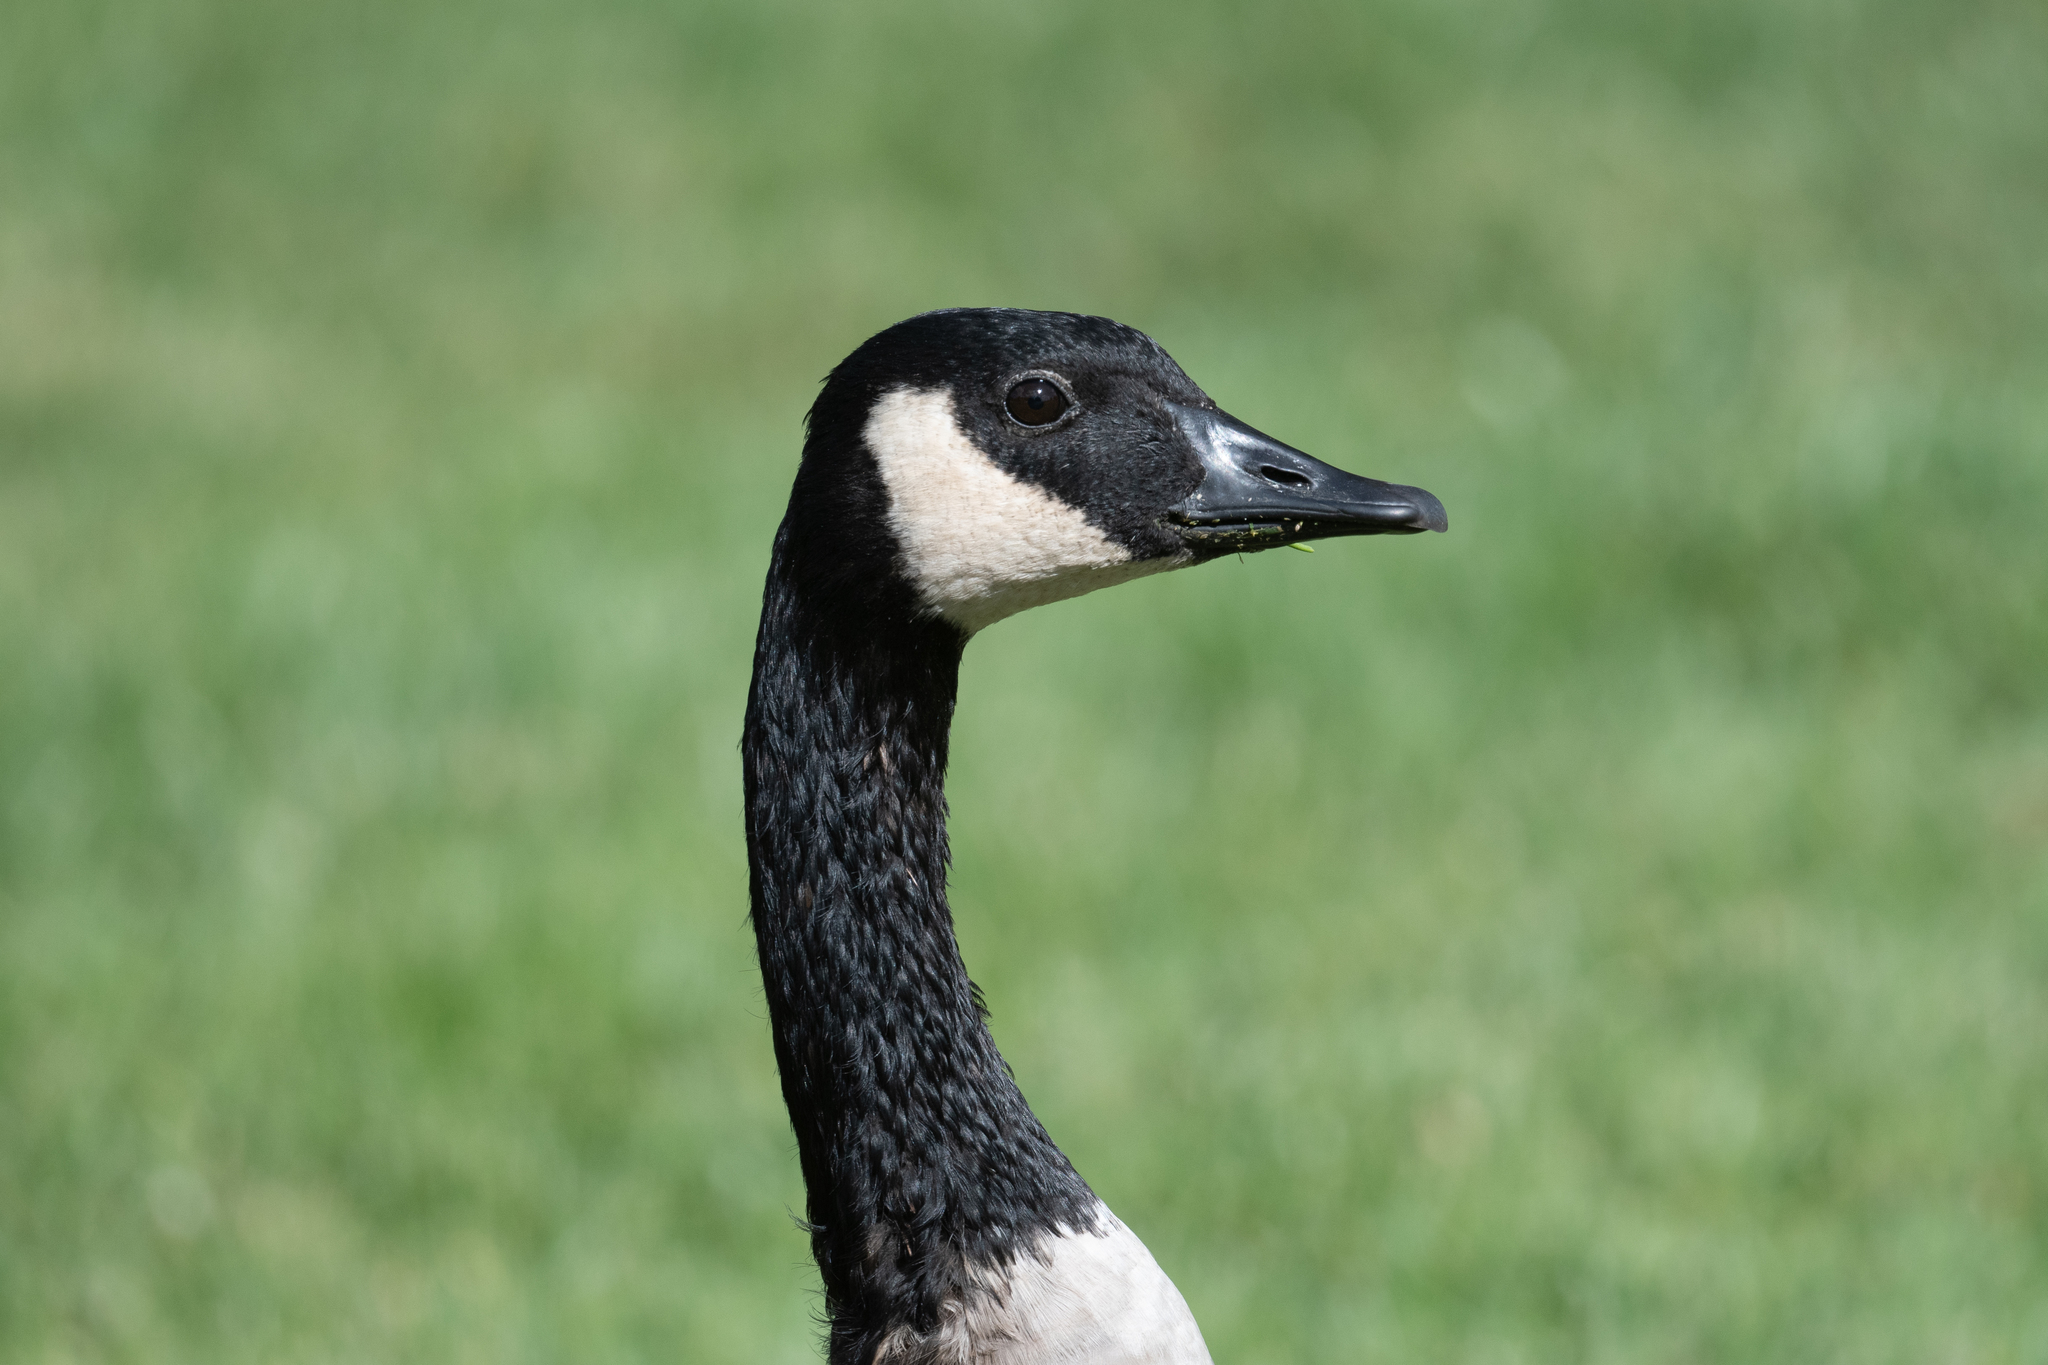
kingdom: Animalia
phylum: Chordata
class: Aves
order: Anseriformes
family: Anatidae
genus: Branta
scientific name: Branta canadensis
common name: Canada goose
